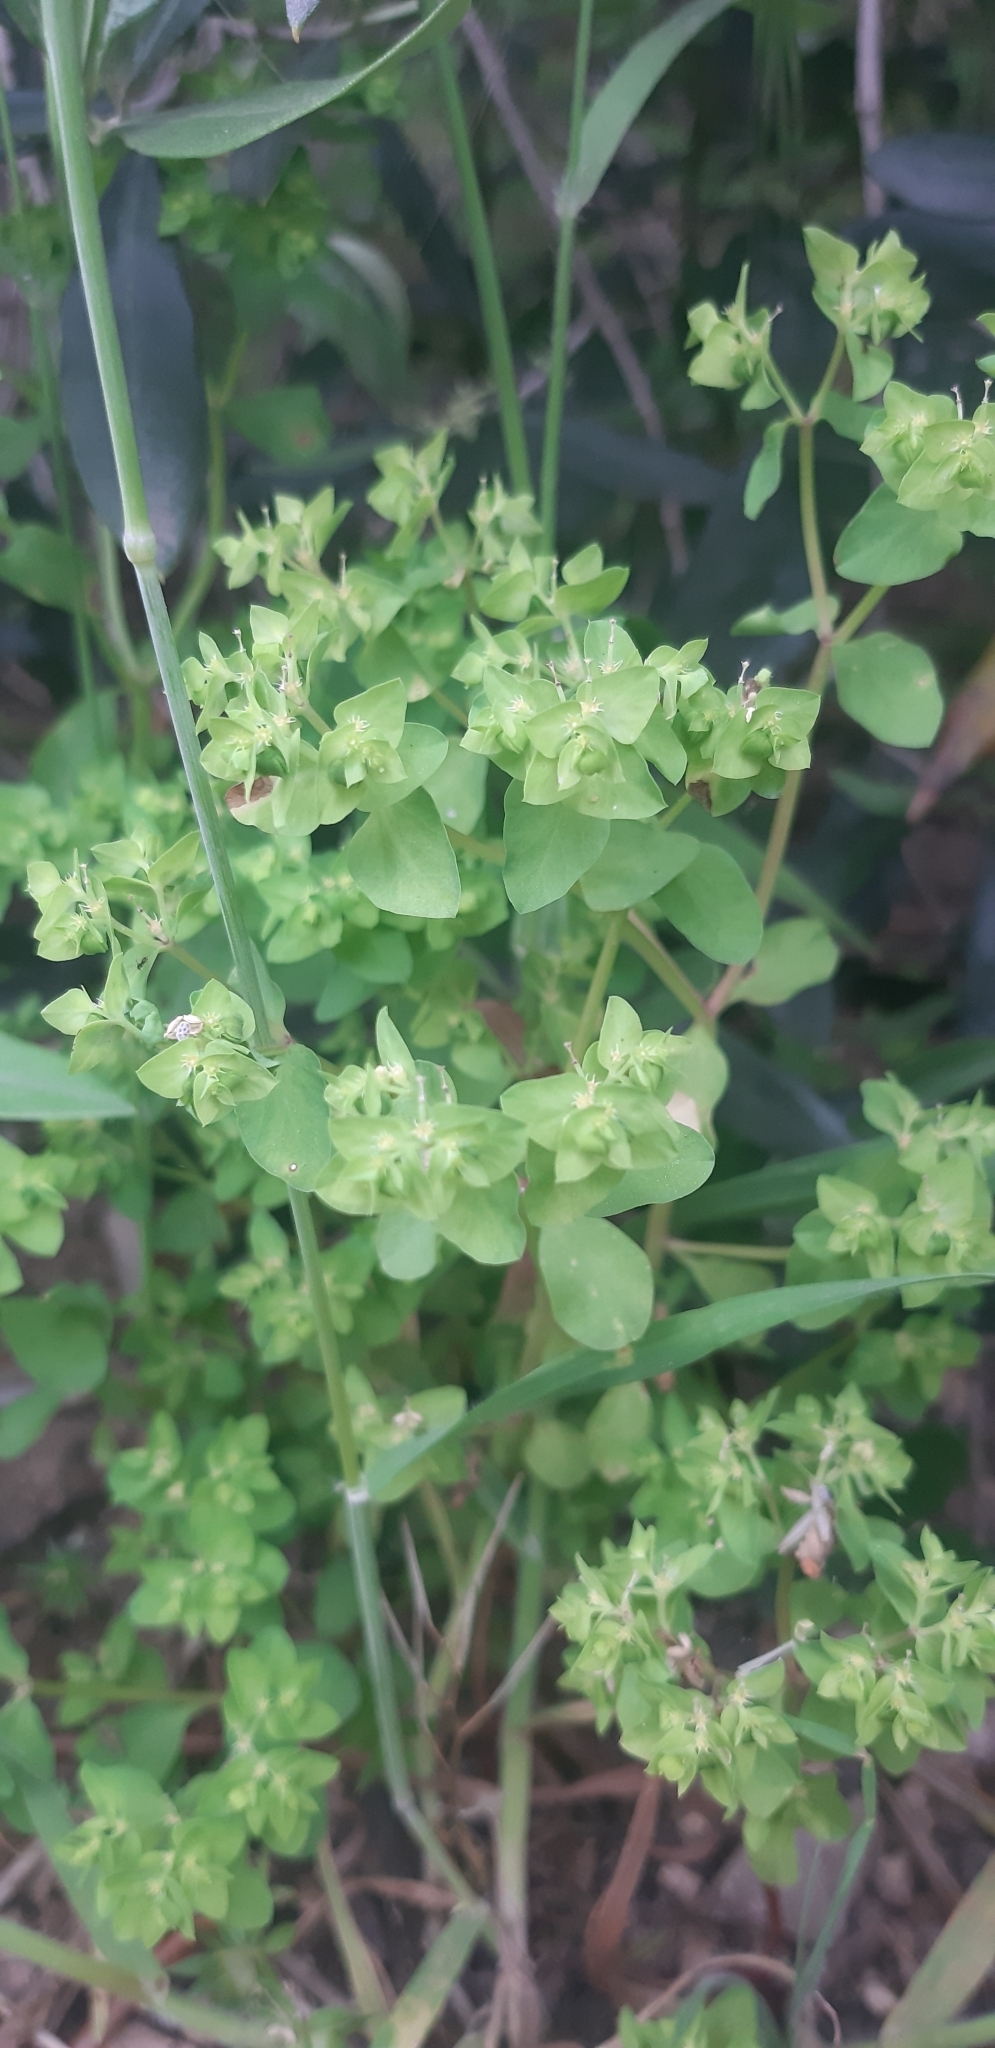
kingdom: Plantae
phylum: Tracheophyta
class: Magnoliopsida
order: Malpighiales
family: Euphorbiaceae
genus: Euphorbia
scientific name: Euphorbia peplus
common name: Petty spurge
